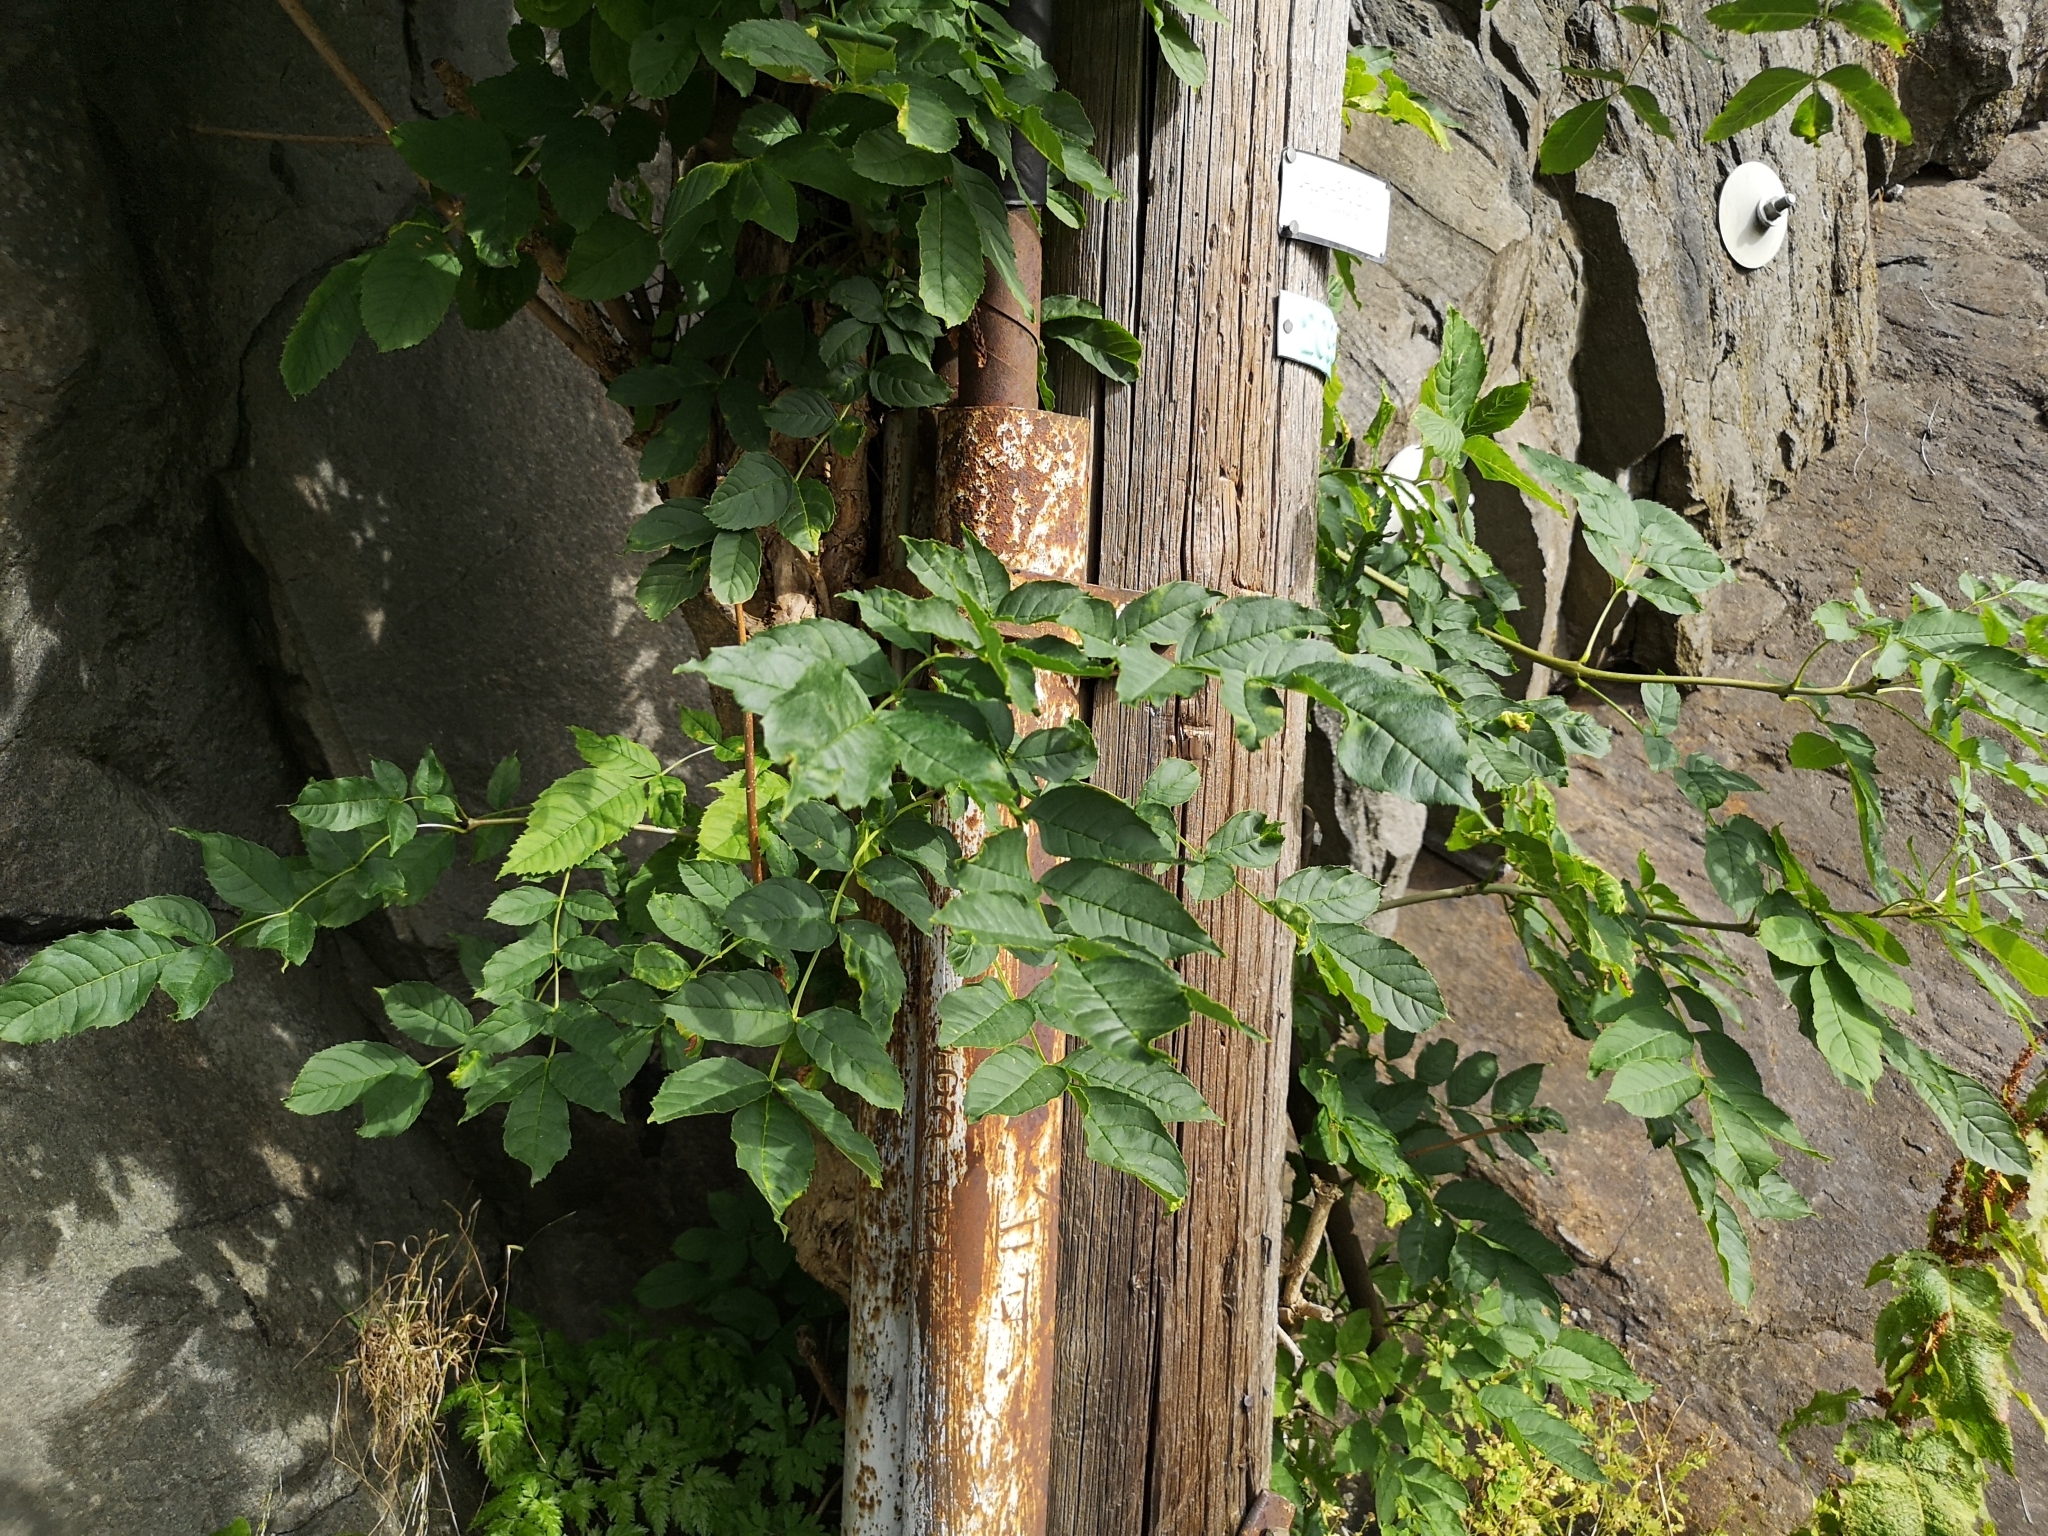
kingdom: Plantae
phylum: Tracheophyta
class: Magnoliopsida
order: Lamiales
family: Oleaceae
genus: Fraxinus
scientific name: Fraxinus excelsior
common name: European ash
